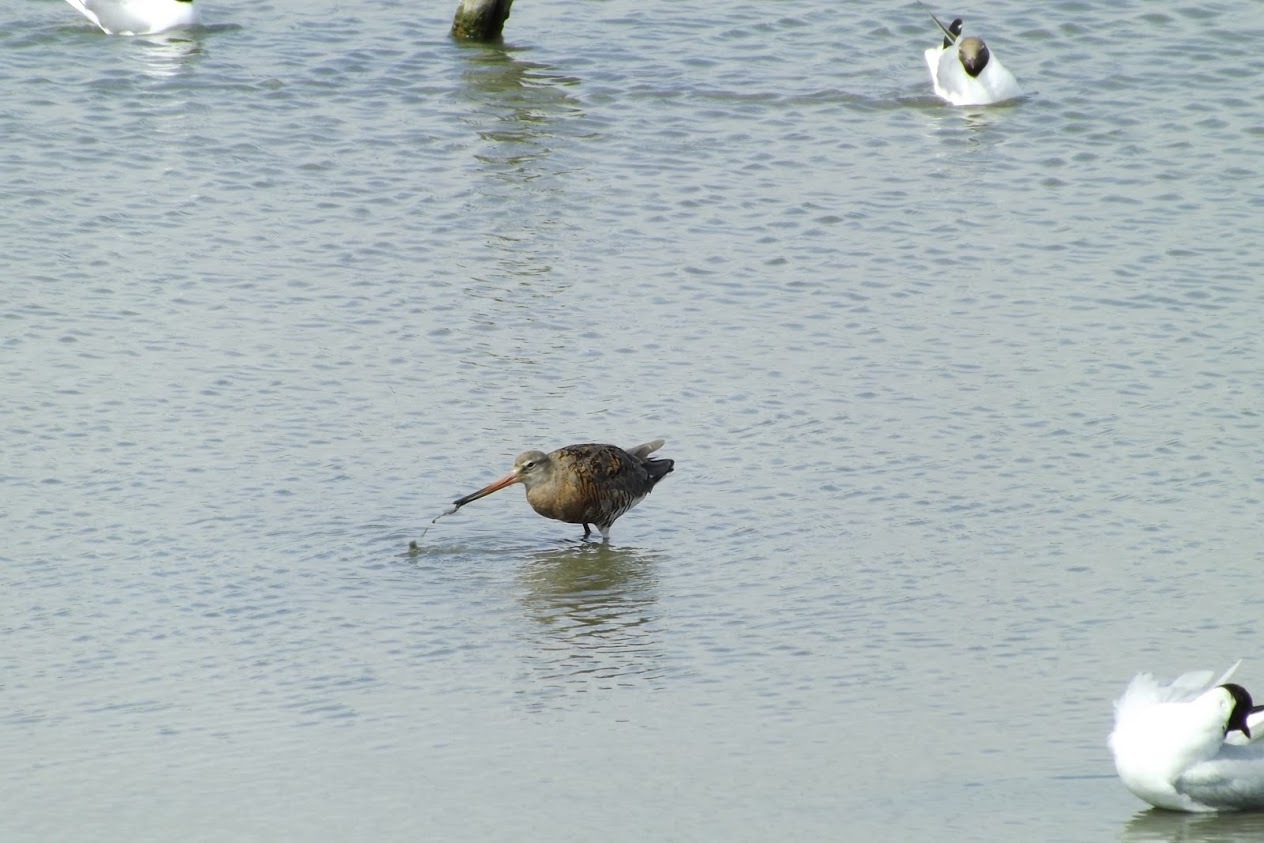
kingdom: Animalia
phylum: Chordata
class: Aves
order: Charadriiformes
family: Scolopacidae
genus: Limosa
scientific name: Limosa limosa
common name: Black-tailed godwit
